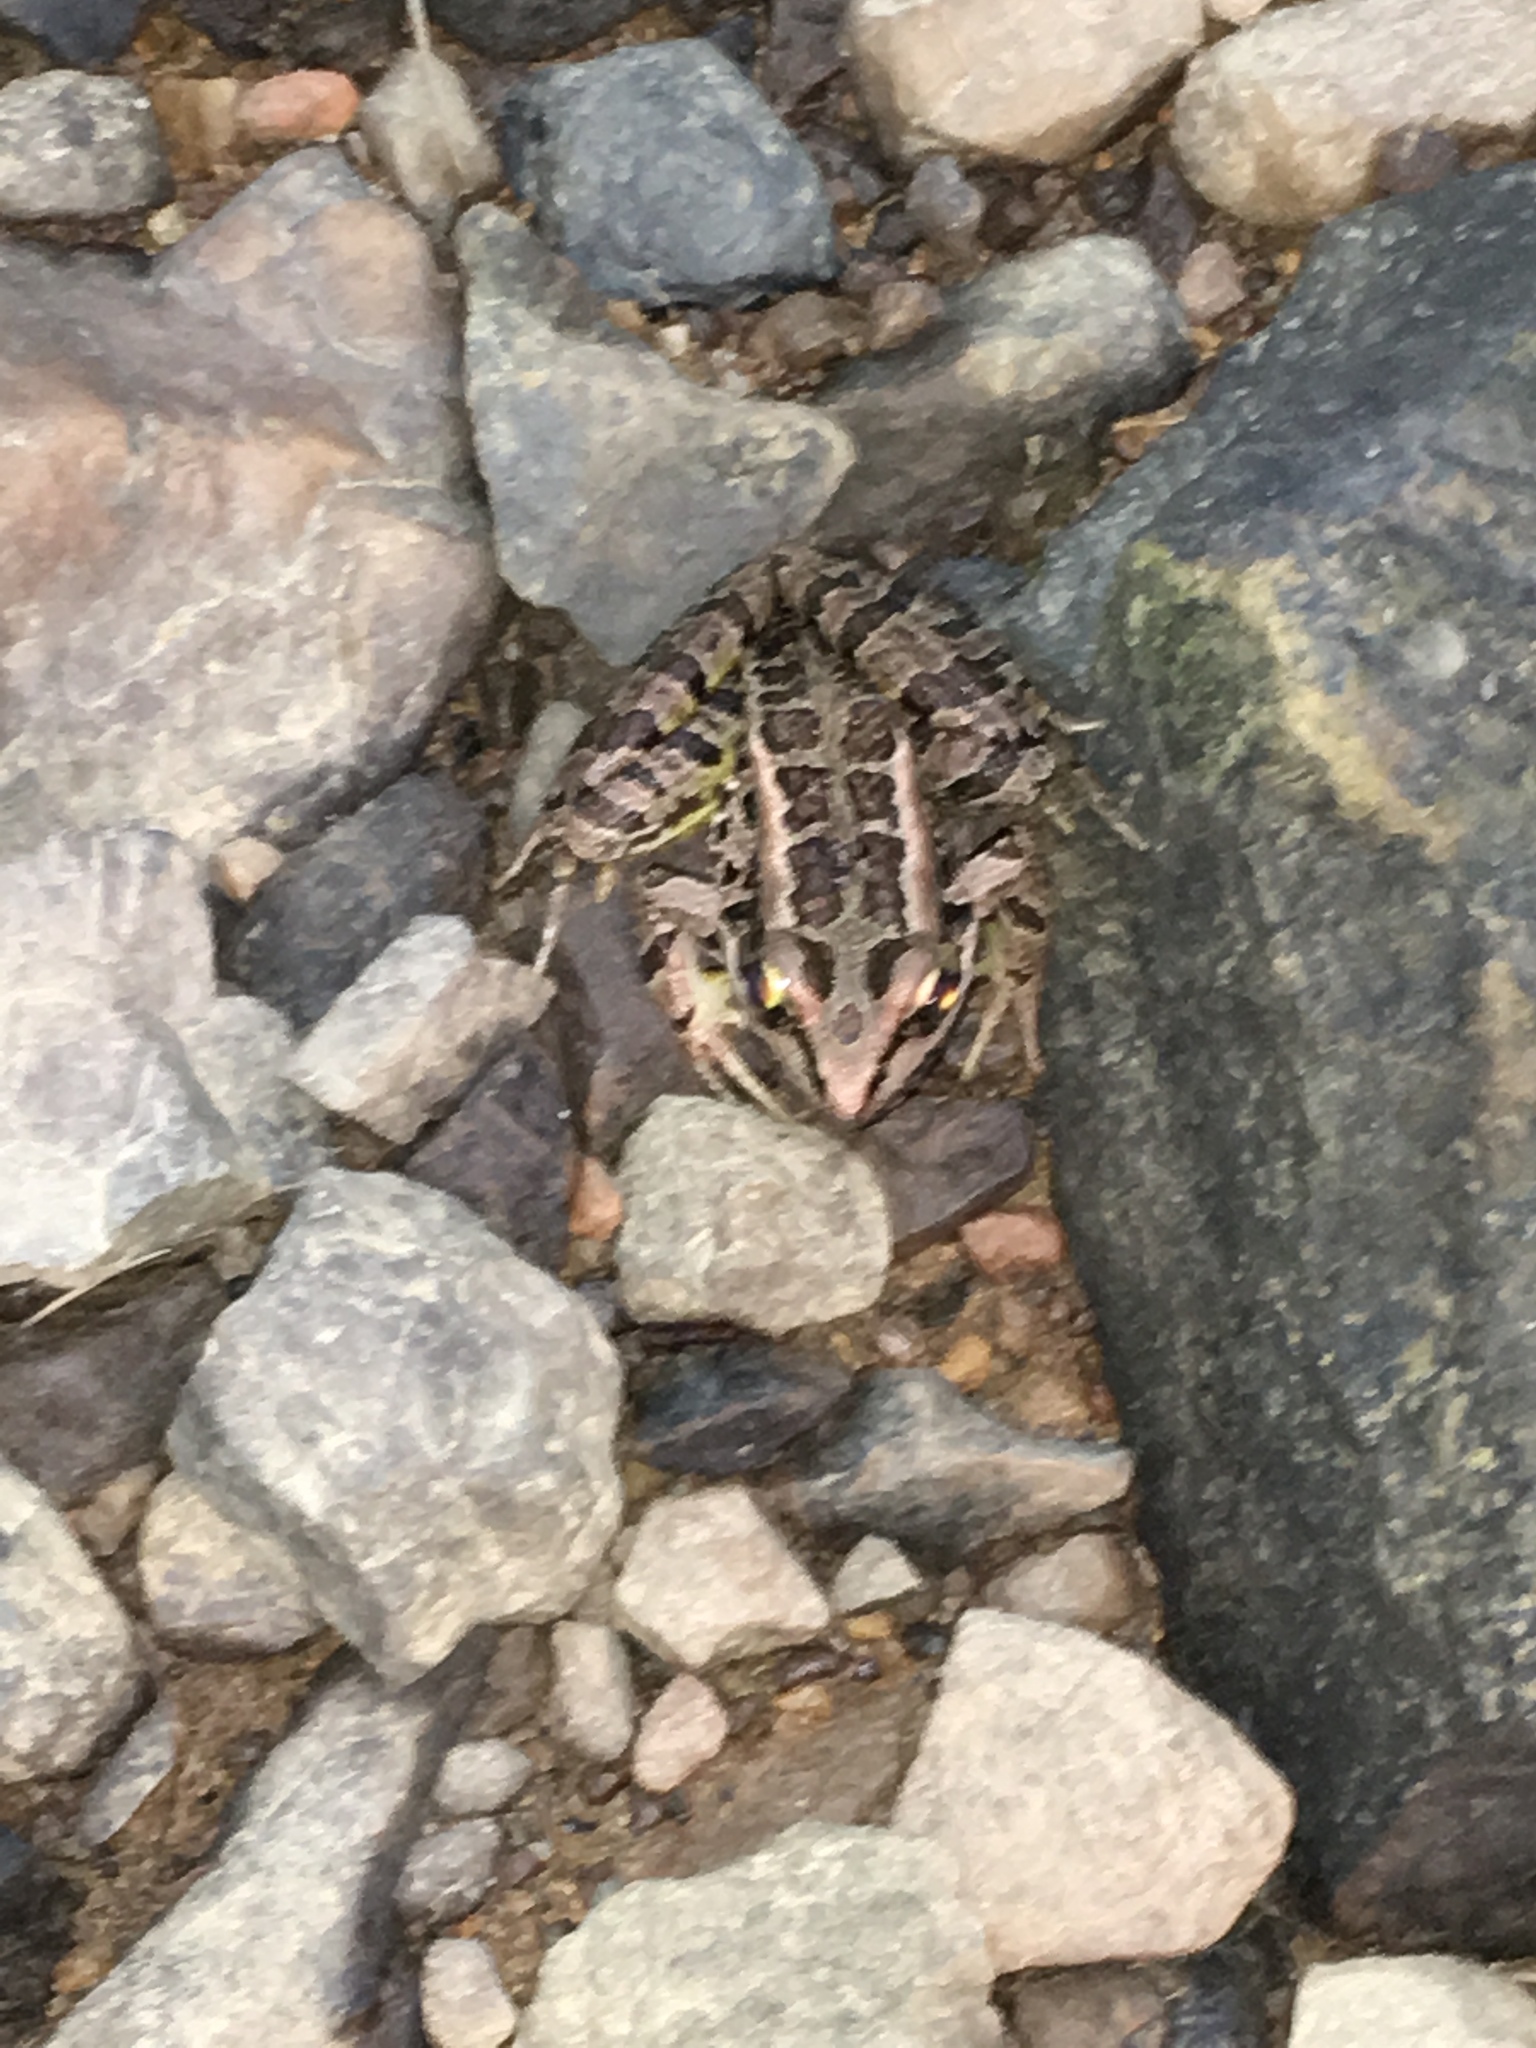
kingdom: Animalia
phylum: Chordata
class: Amphibia
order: Anura
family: Ranidae
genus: Lithobates
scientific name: Lithobates palustris
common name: Pickerel frog
